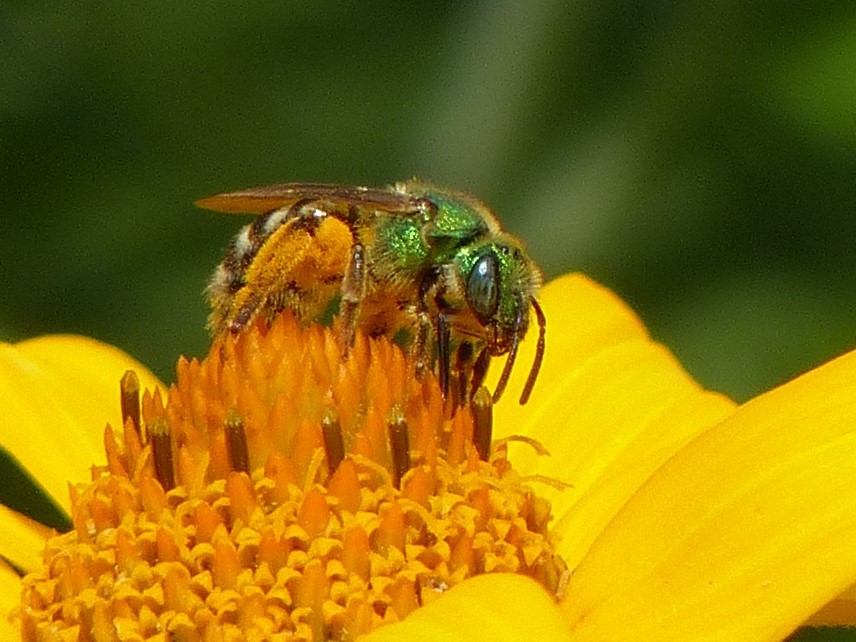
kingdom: Animalia
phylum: Arthropoda
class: Insecta
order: Hymenoptera
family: Halictidae
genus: Agapostemon
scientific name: Agapostemon virescens
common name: Bicolored striped sweat bee
